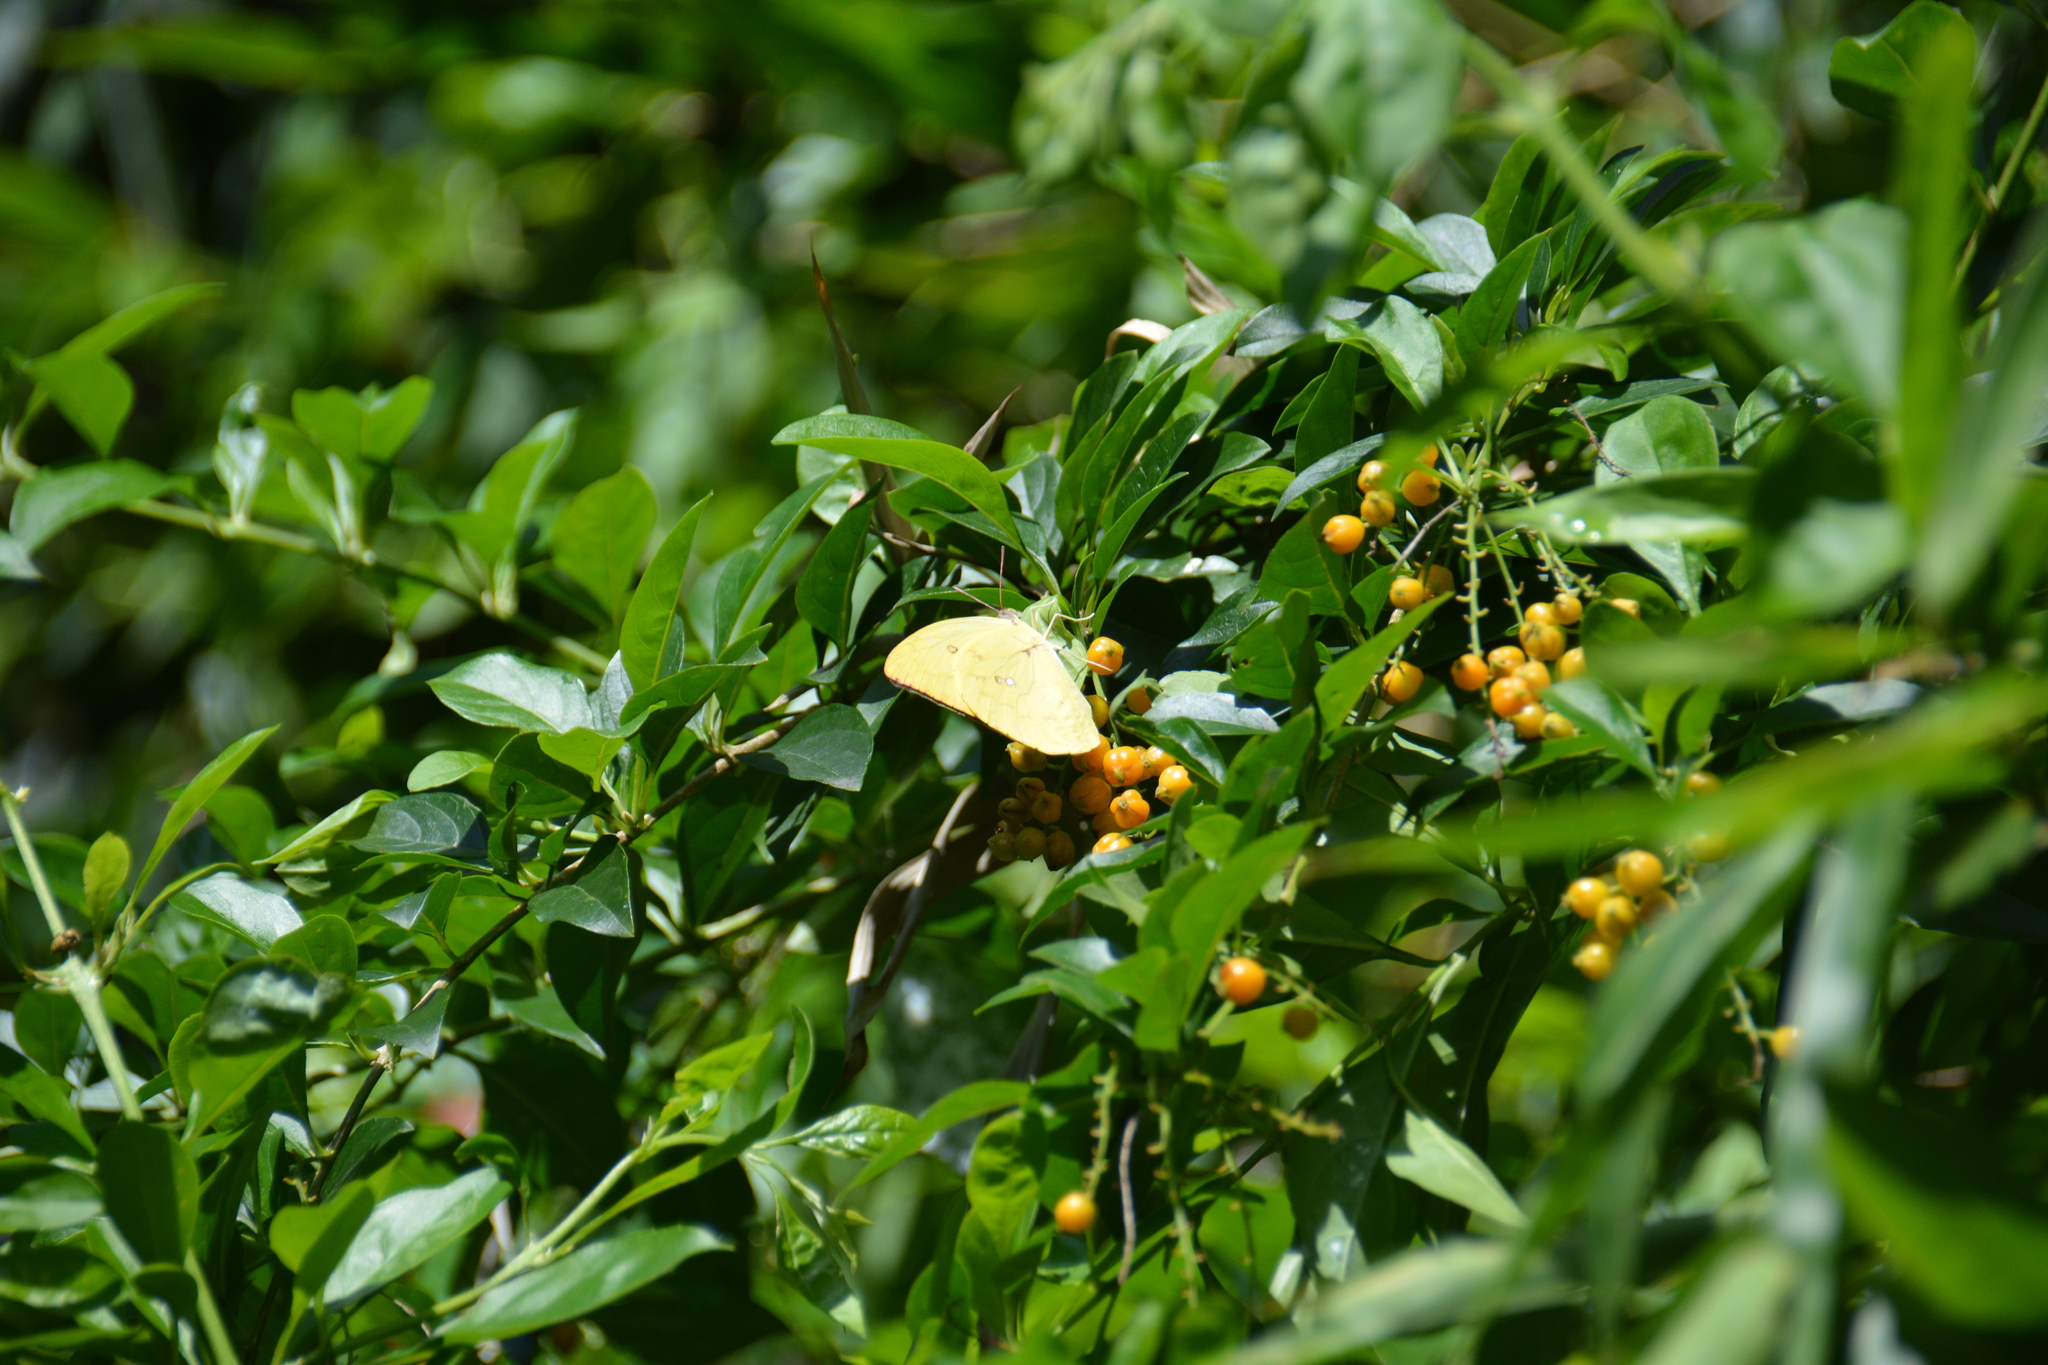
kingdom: Animalia
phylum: Arthropoda
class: Insecta
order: Lepidoptera
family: Pieridae
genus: Catopsilia
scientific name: Catopsilia pomona
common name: Common emigrant
